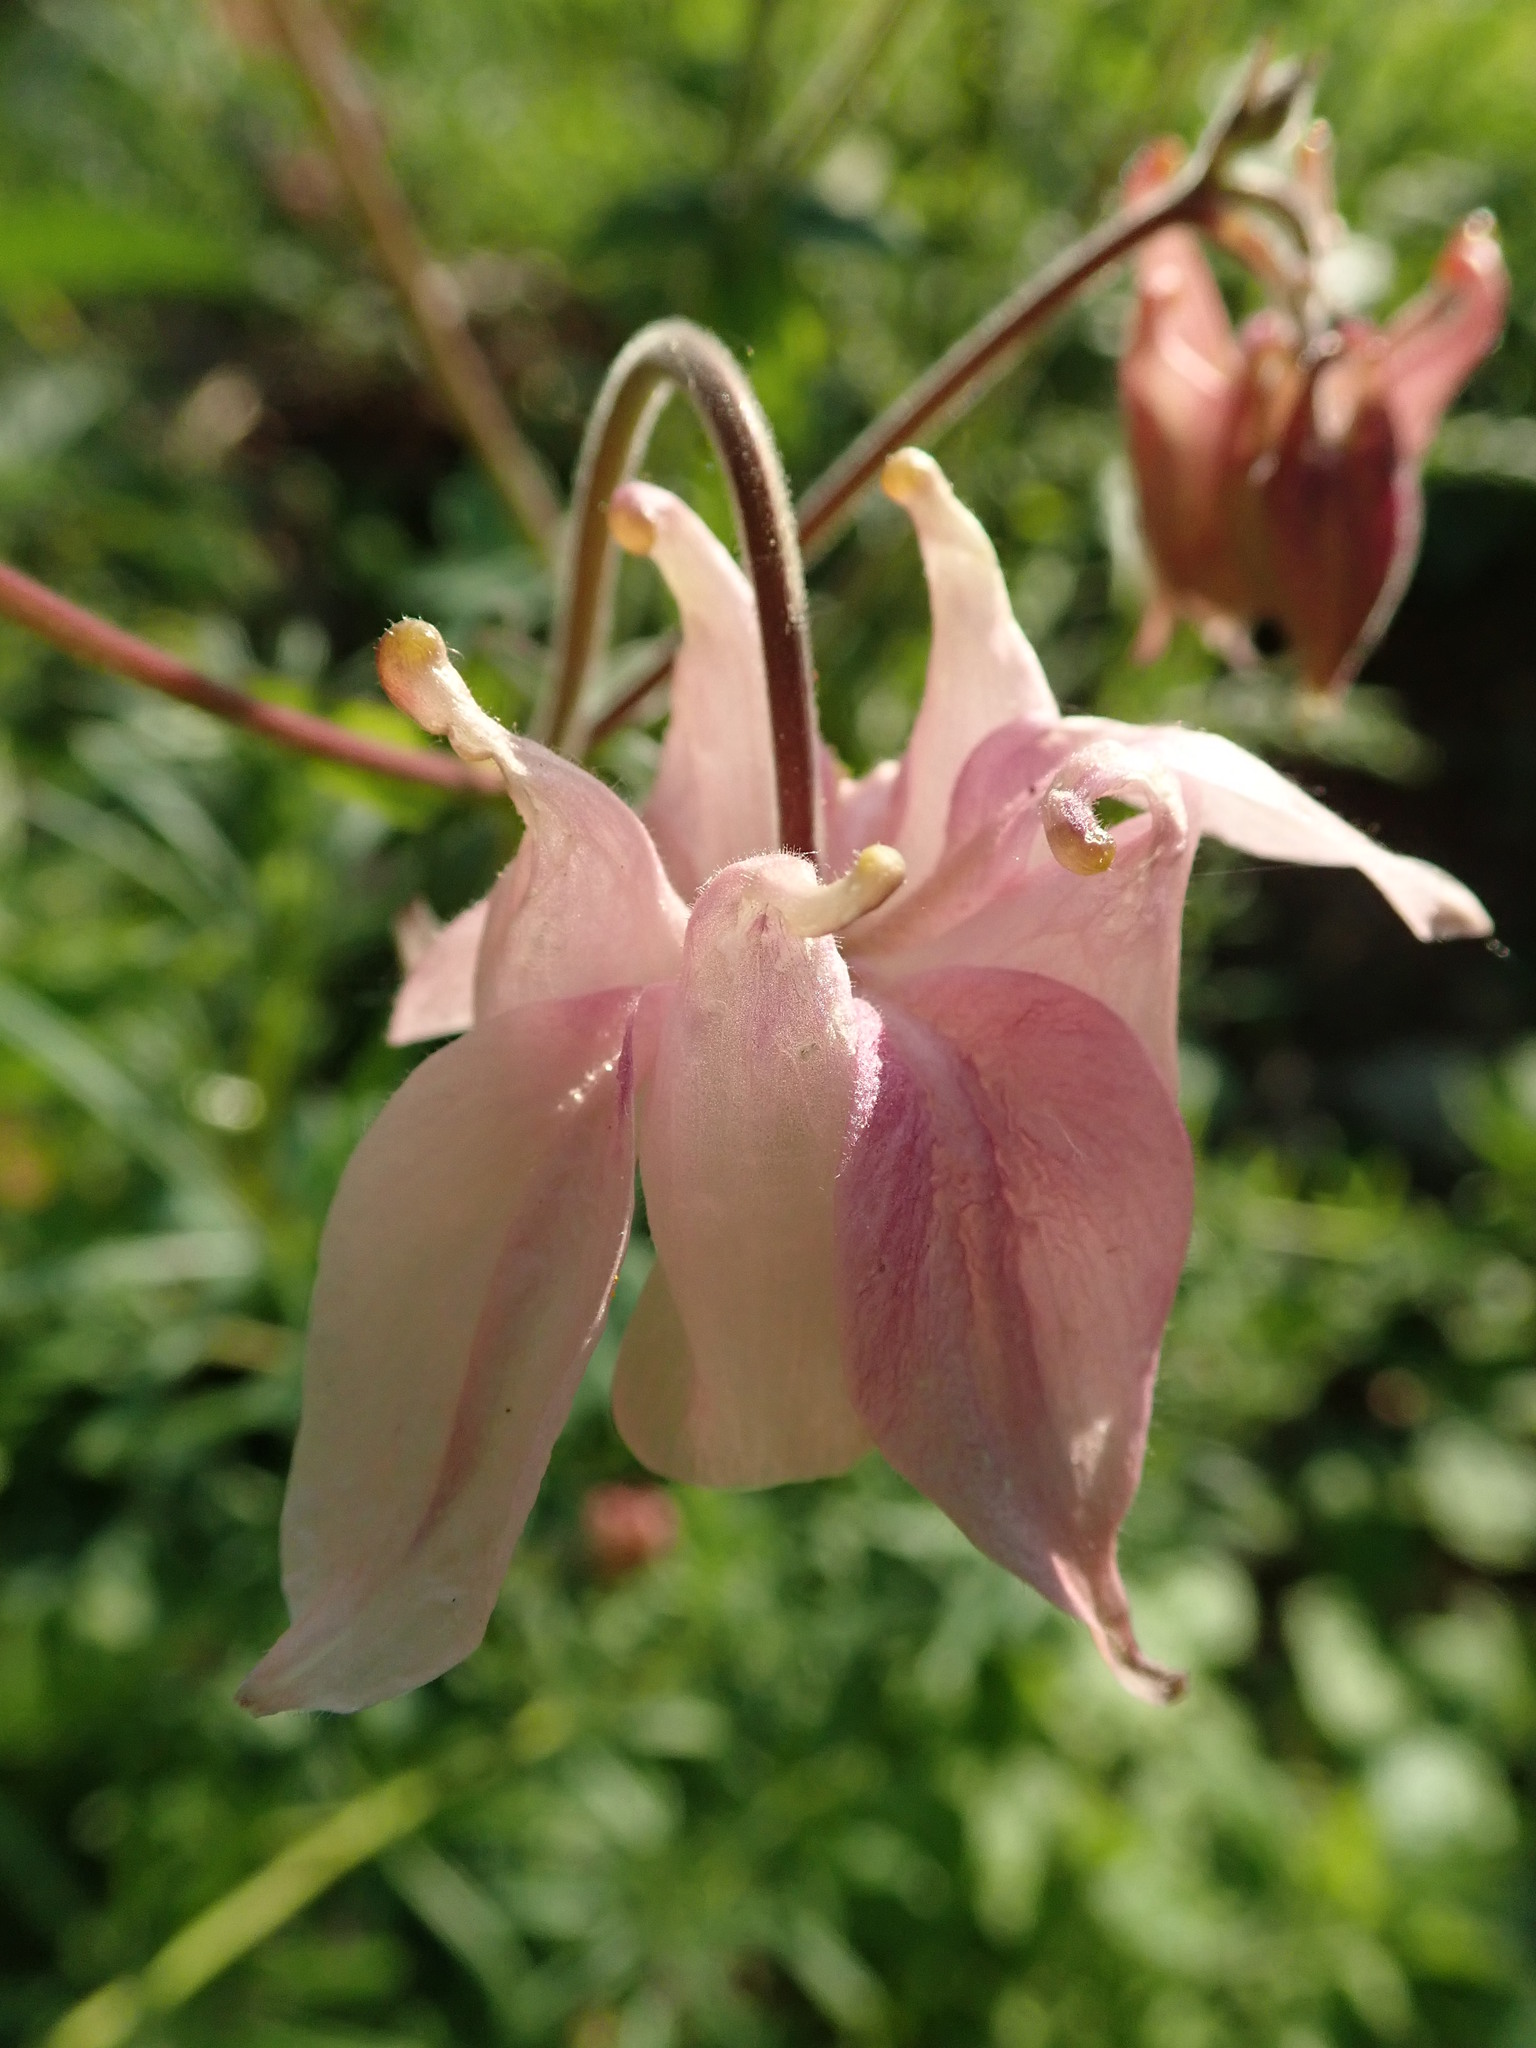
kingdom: Plantae
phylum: Tracheophyta
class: Magnoliopsida
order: Ranunculales
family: Ranunculaceae
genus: Aquilegia
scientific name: Aquilegia vulgaris
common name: Columbine
